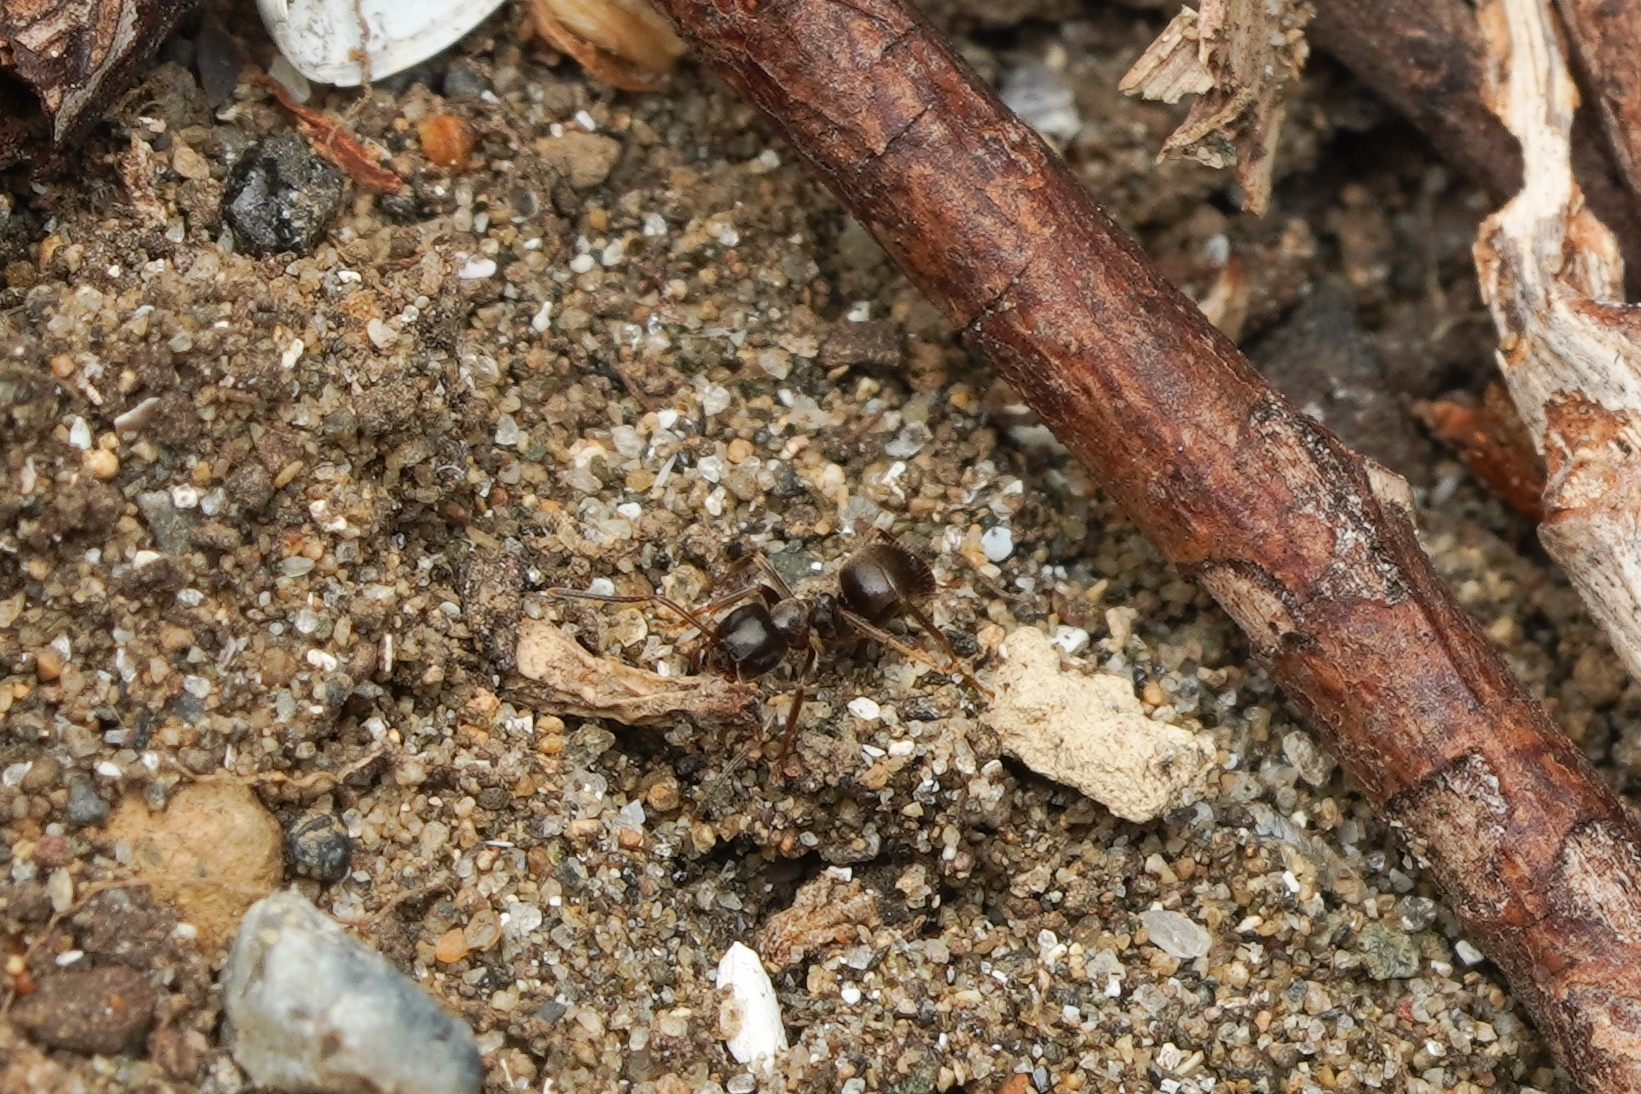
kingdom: Animalia
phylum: Arthropoda
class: Insecta
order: Hymenoptera
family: Formicidae
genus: Lasius
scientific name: Lasius japonicus
